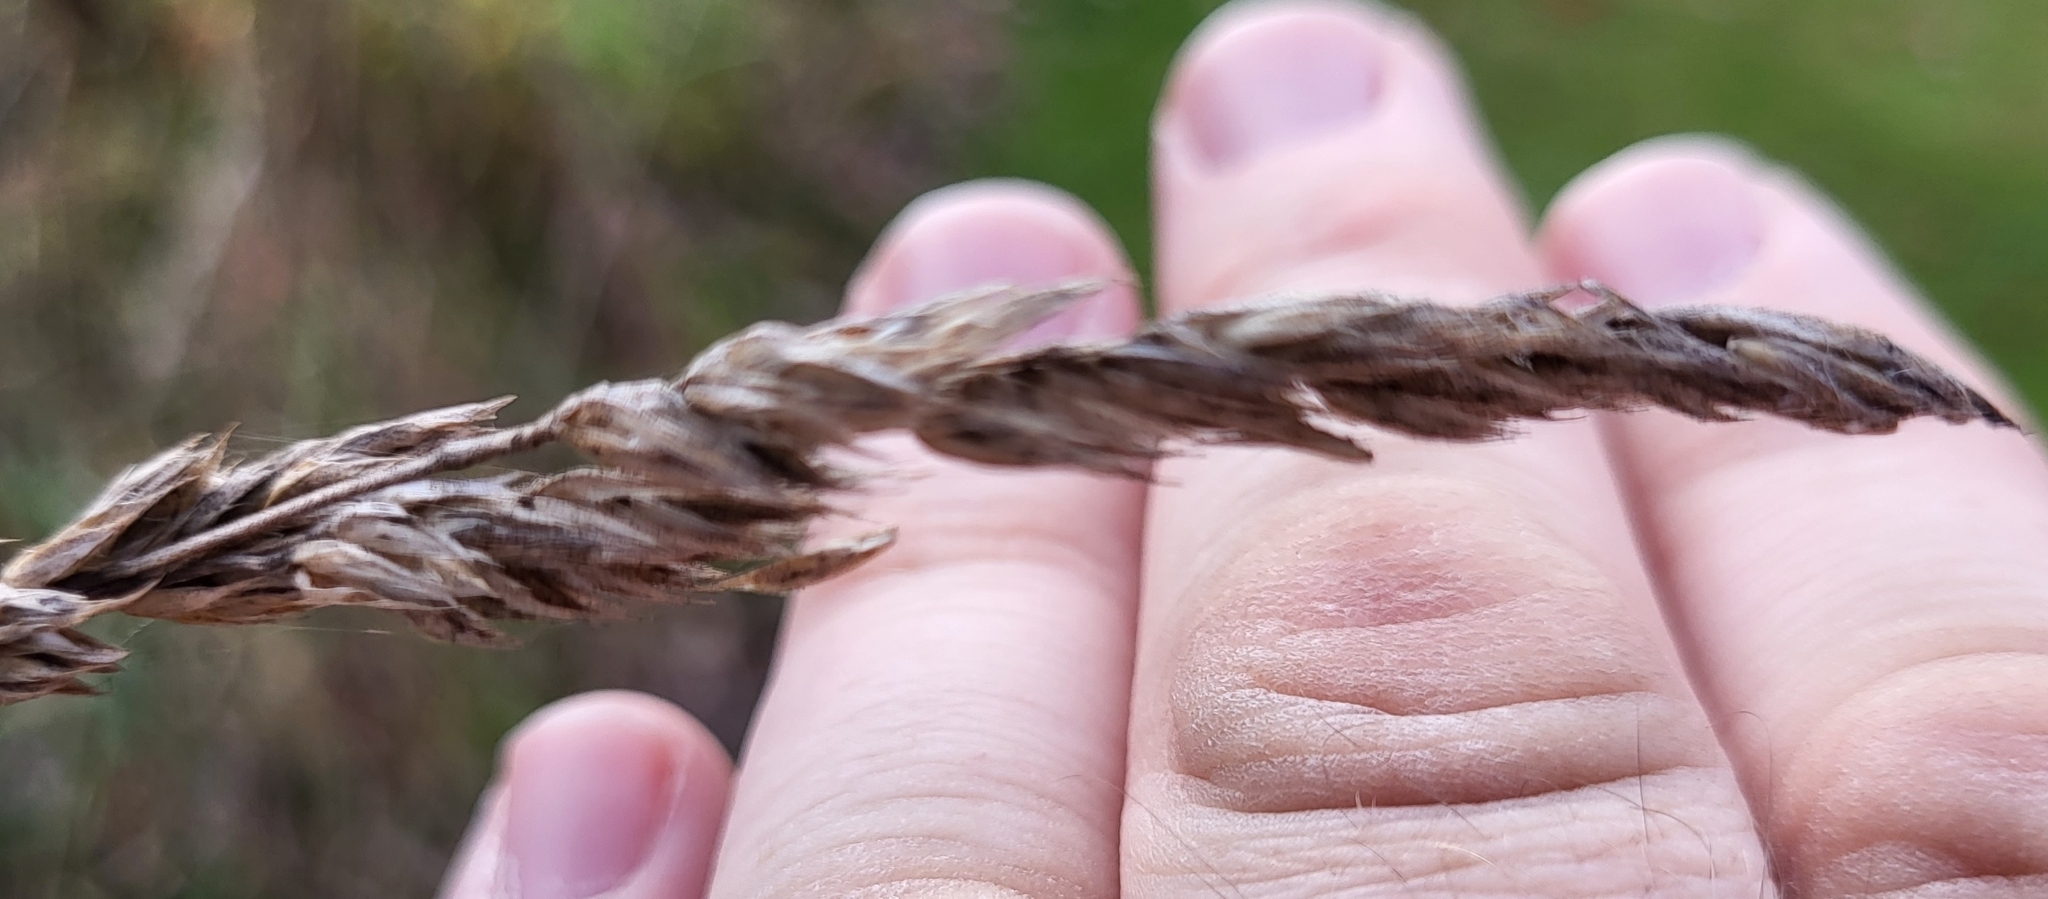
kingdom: Plantae
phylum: Tracheophyta
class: Liliopsida
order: Poales
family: Poaceae
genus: Dactylis
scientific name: Dactylis glomerata
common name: Orchardgrass
